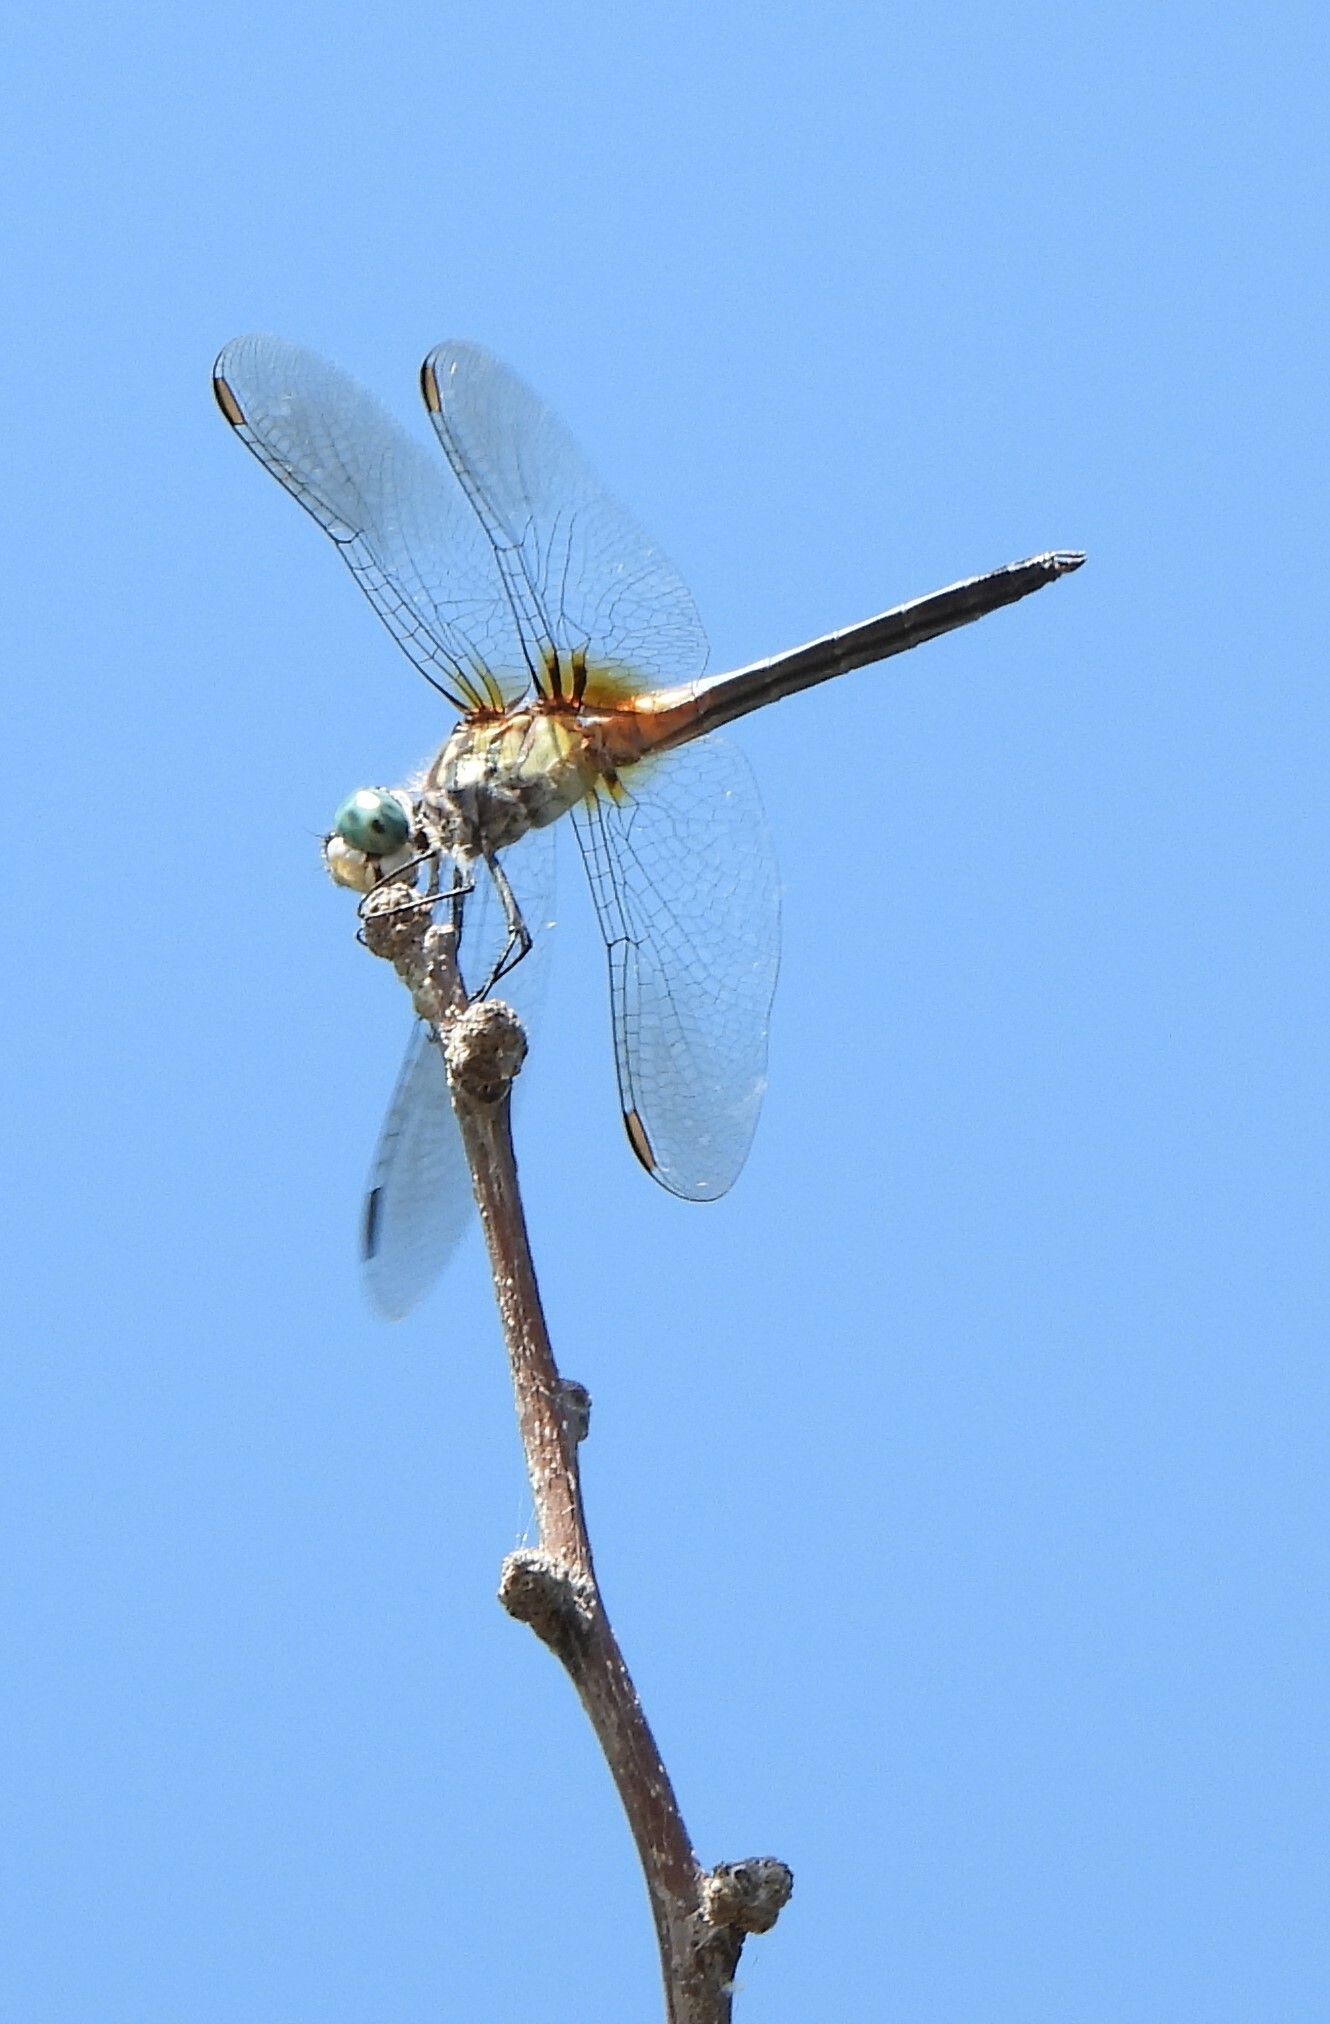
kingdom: Animalia
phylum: Arthropoda
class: Insecta
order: Odonata
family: Libellulidae
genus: Pachydiplax
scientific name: Pachydiplax longipennis
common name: Blue dasher
